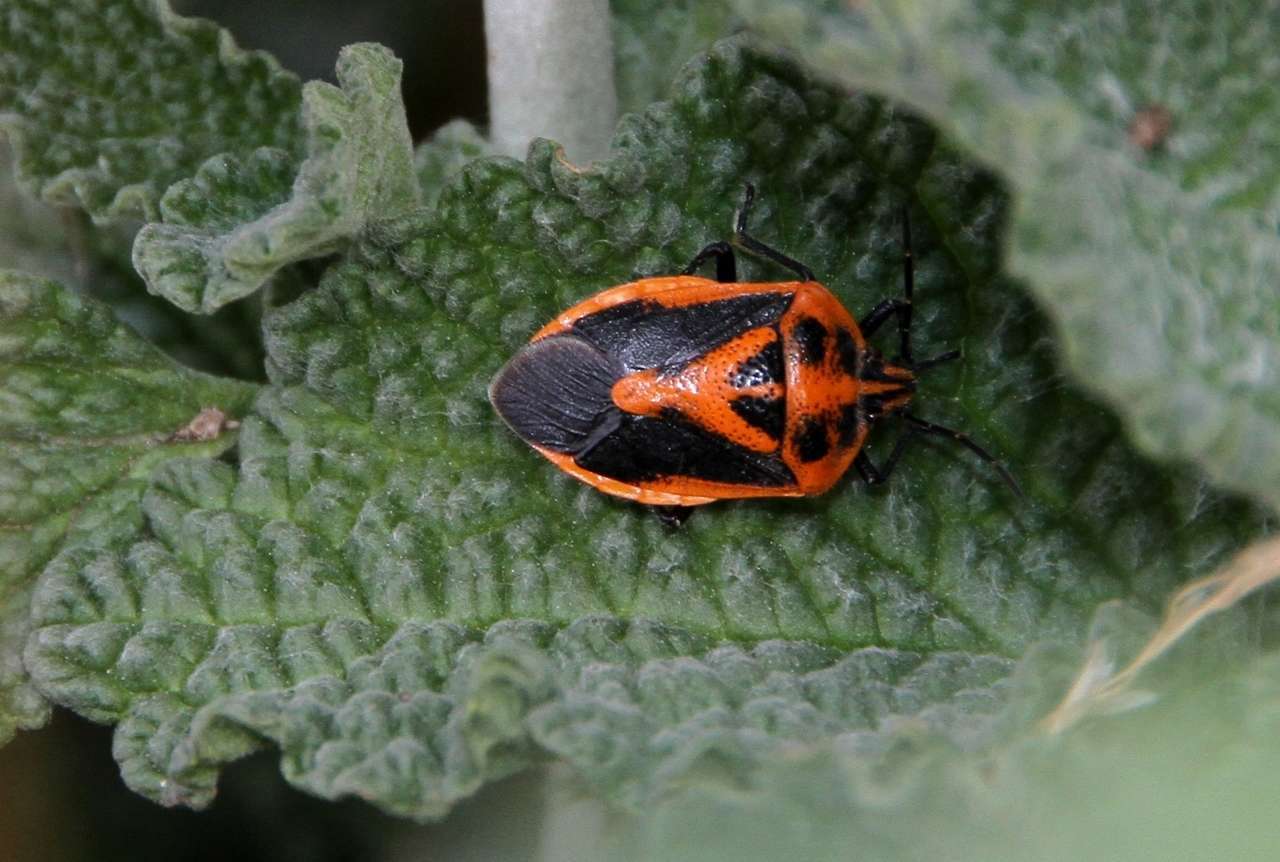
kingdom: Animalia
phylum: Arthropoda
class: Insecta
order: Hemiptera
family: Pentatomidae
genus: Agonoscelis
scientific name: Agonoscelis rutila
